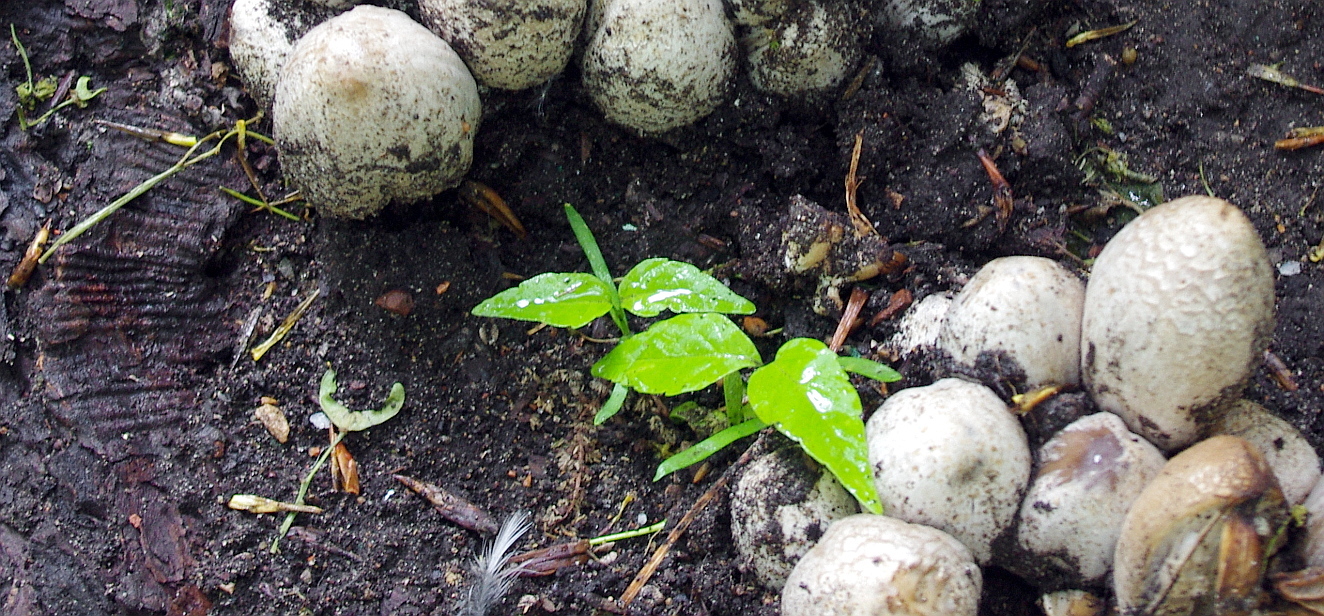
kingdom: Plantae
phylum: Tracheophyta
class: Magnoliopsida
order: Sapindales
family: Sapindaceae
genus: Acer
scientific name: Acer negundo
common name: Ashleaf maple
